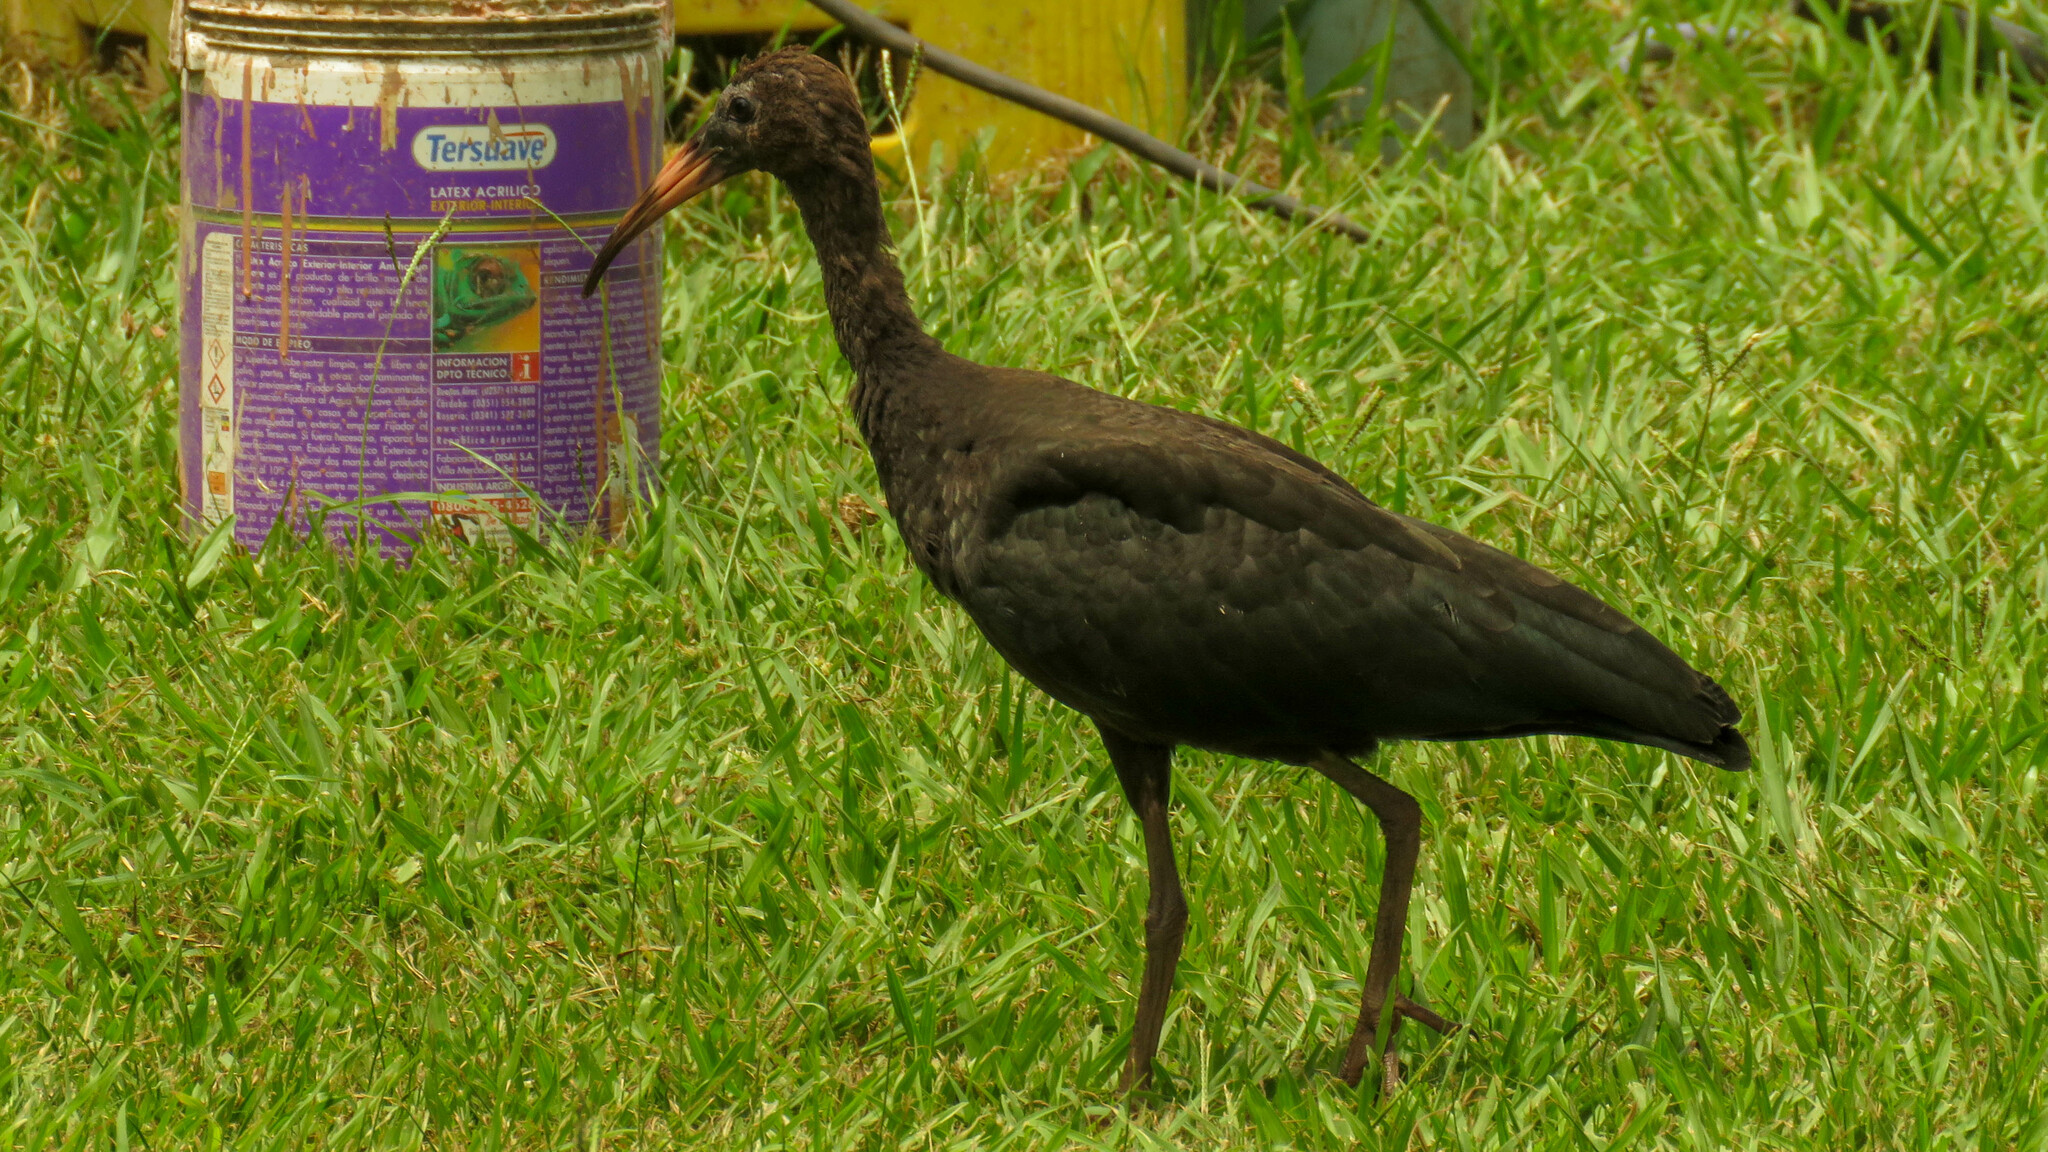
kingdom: Animalia
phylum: Chordata
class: Aves
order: Pelecaniformes
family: Threskiornithidae
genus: Phimosus
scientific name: Phimosus infuscatus
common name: Bare-faced ibis
